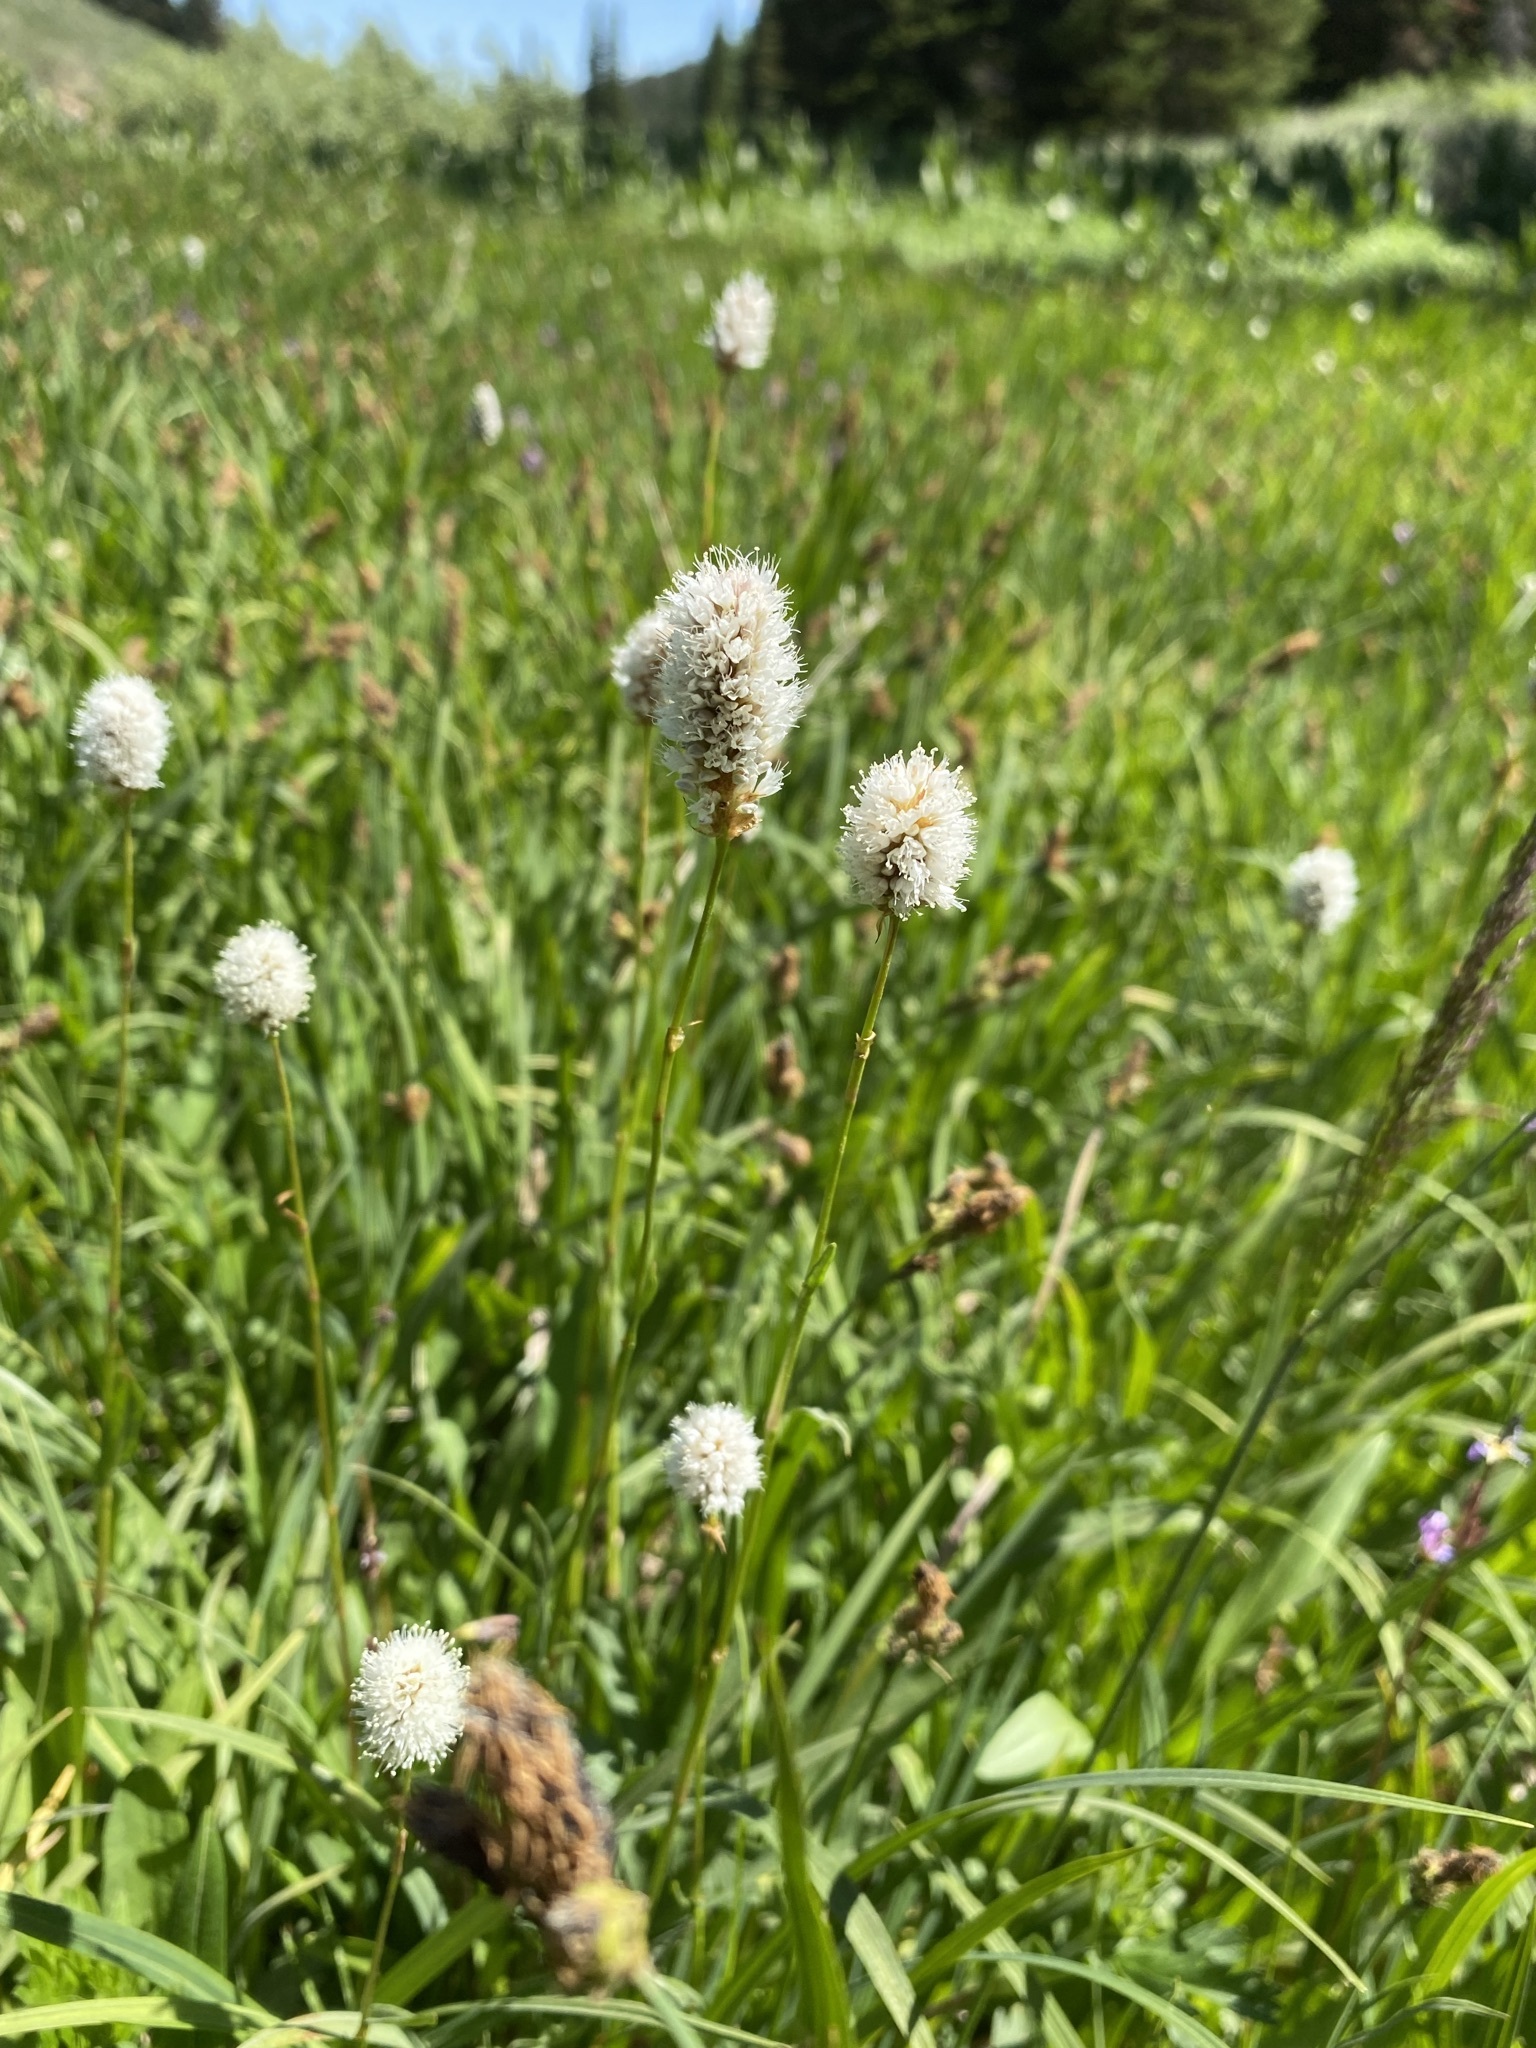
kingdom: Plantae
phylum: Tracheophyta
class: Magnoliopsida
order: Caryophyllales
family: Polygonaceae
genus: Bistorta
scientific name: Bistorta bistortoides
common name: American bistort
